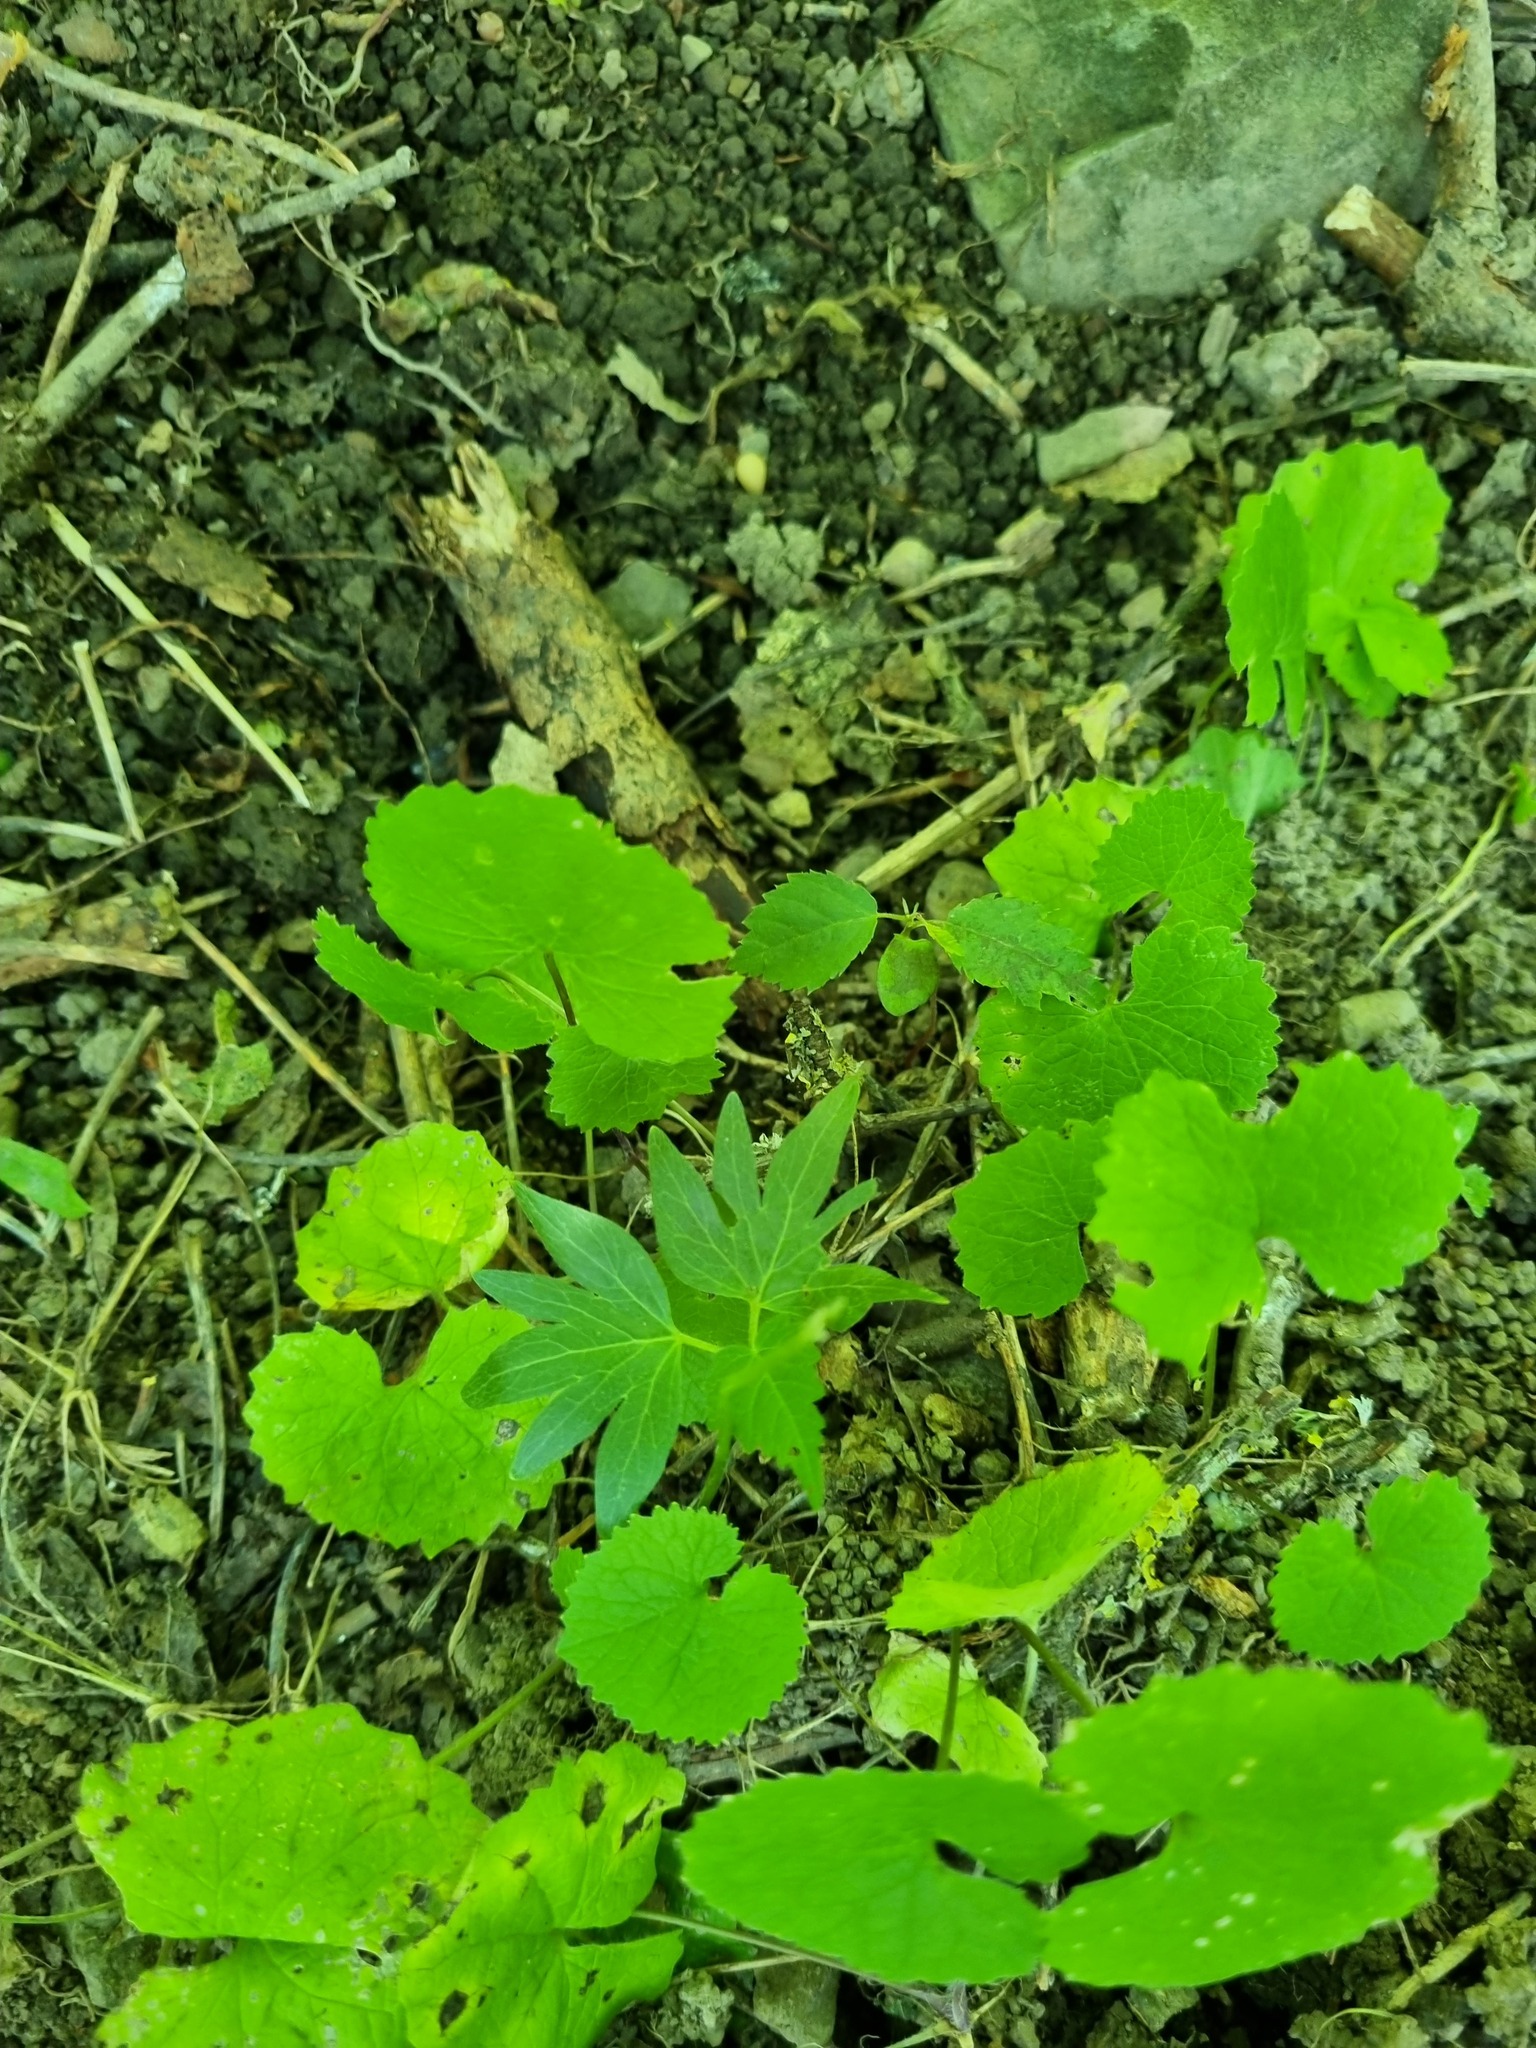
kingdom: Plantae
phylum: Tracheophyta
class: Magnoliopsida
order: Brassicales
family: Brassicaceae
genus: Alliaria
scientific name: Alliaria petiolata
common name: Garlic mustard
